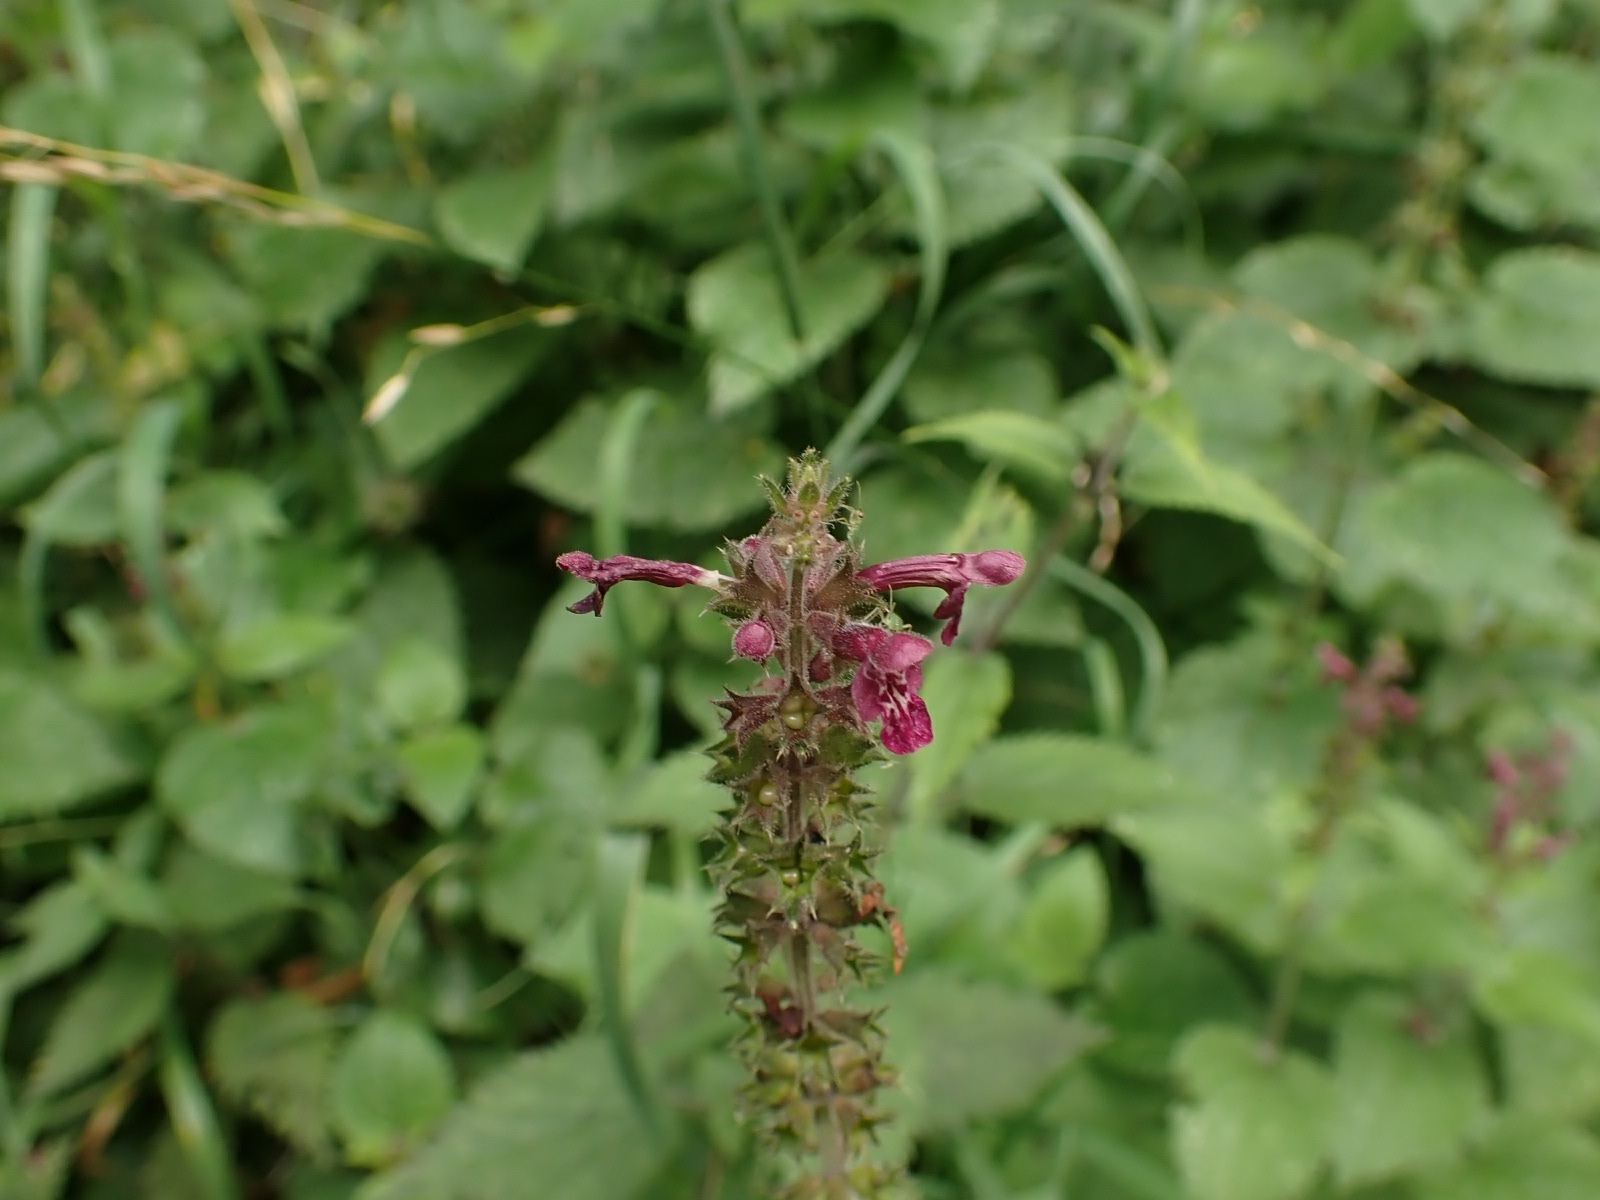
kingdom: Plantae
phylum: Tracheophyta
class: Magnoliopsida
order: Lamiales
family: Lamiaceae
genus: Stachys
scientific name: Stachys sylvatica
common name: Hedge woundwort
